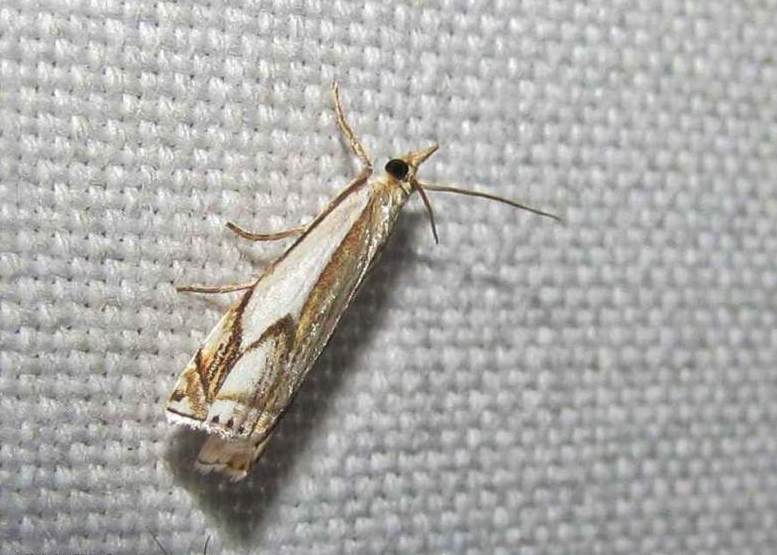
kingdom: Animalia
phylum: Arthropoda
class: Insecta
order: Lepidoptera
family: Crambidae
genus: Crambus
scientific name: Crambus agitatellus
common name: Double-banded grass-veneer
